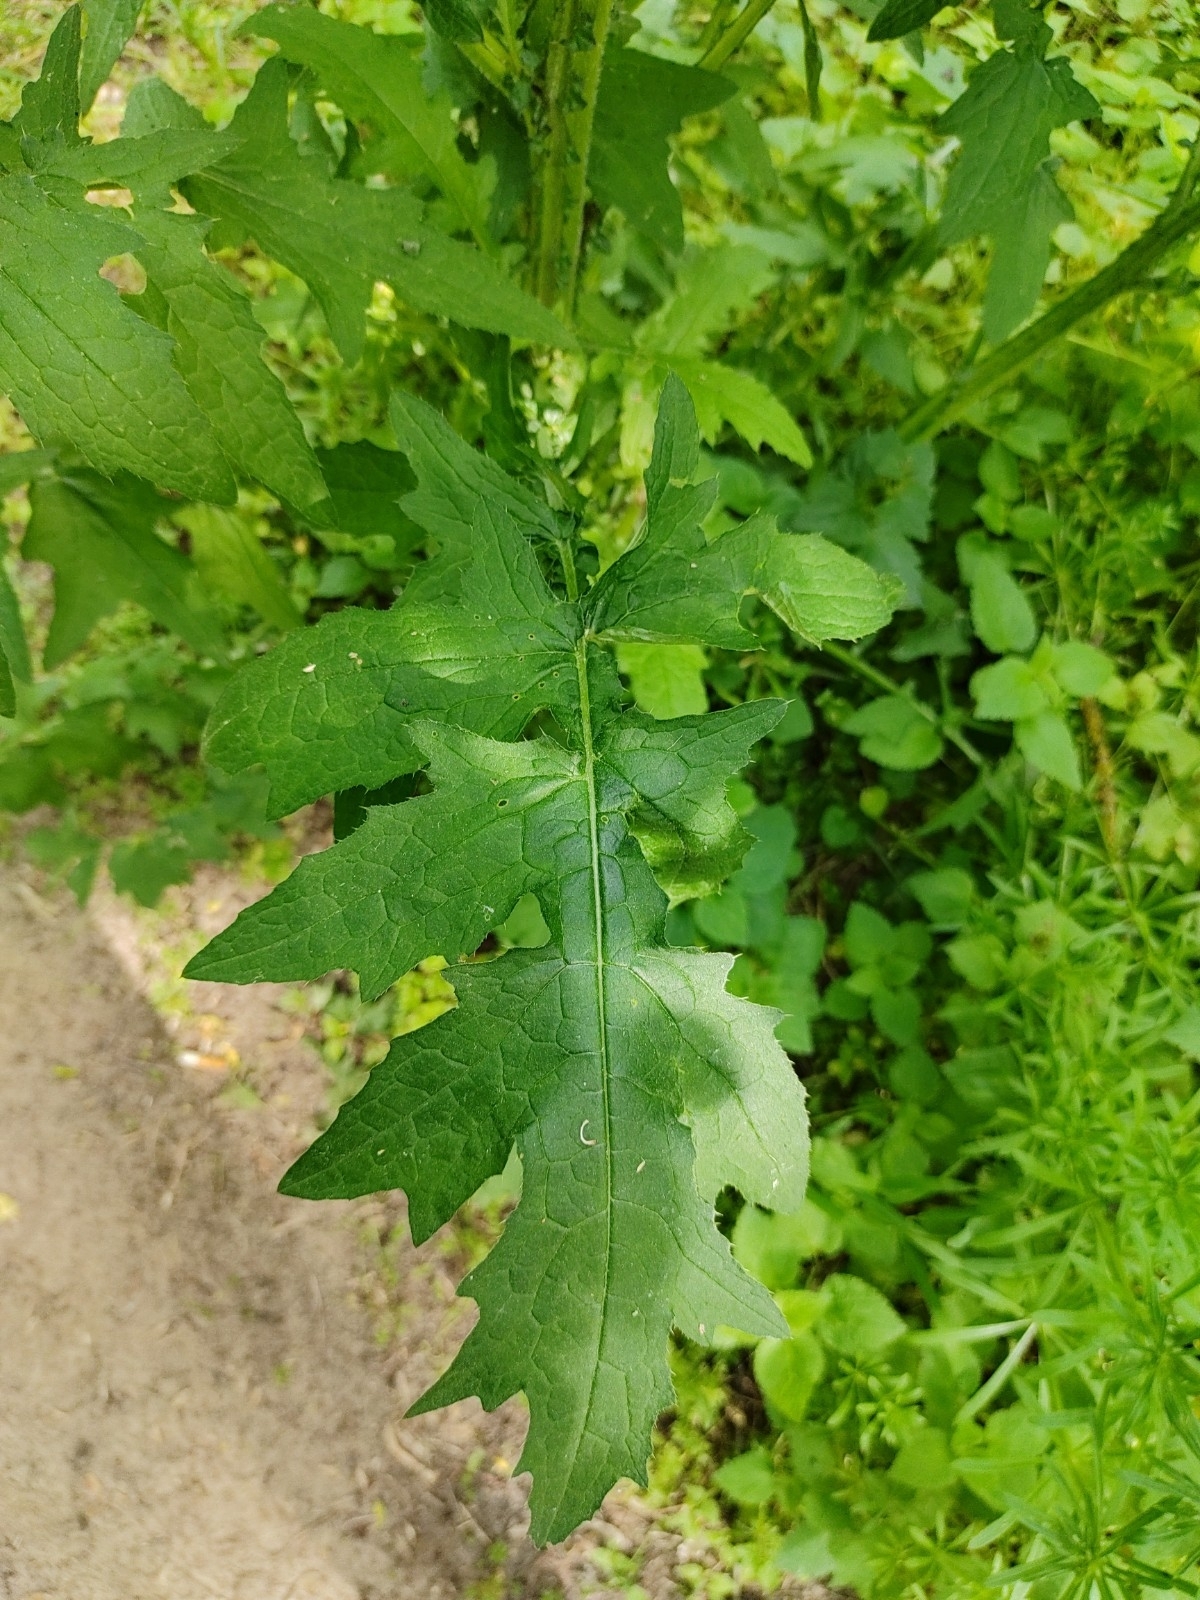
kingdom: Plantae
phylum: Tracheophyta
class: Magnoliopsida
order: Asterales
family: Asteraceae
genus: Carduus
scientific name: Carduus crispus
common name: Welted thistle
